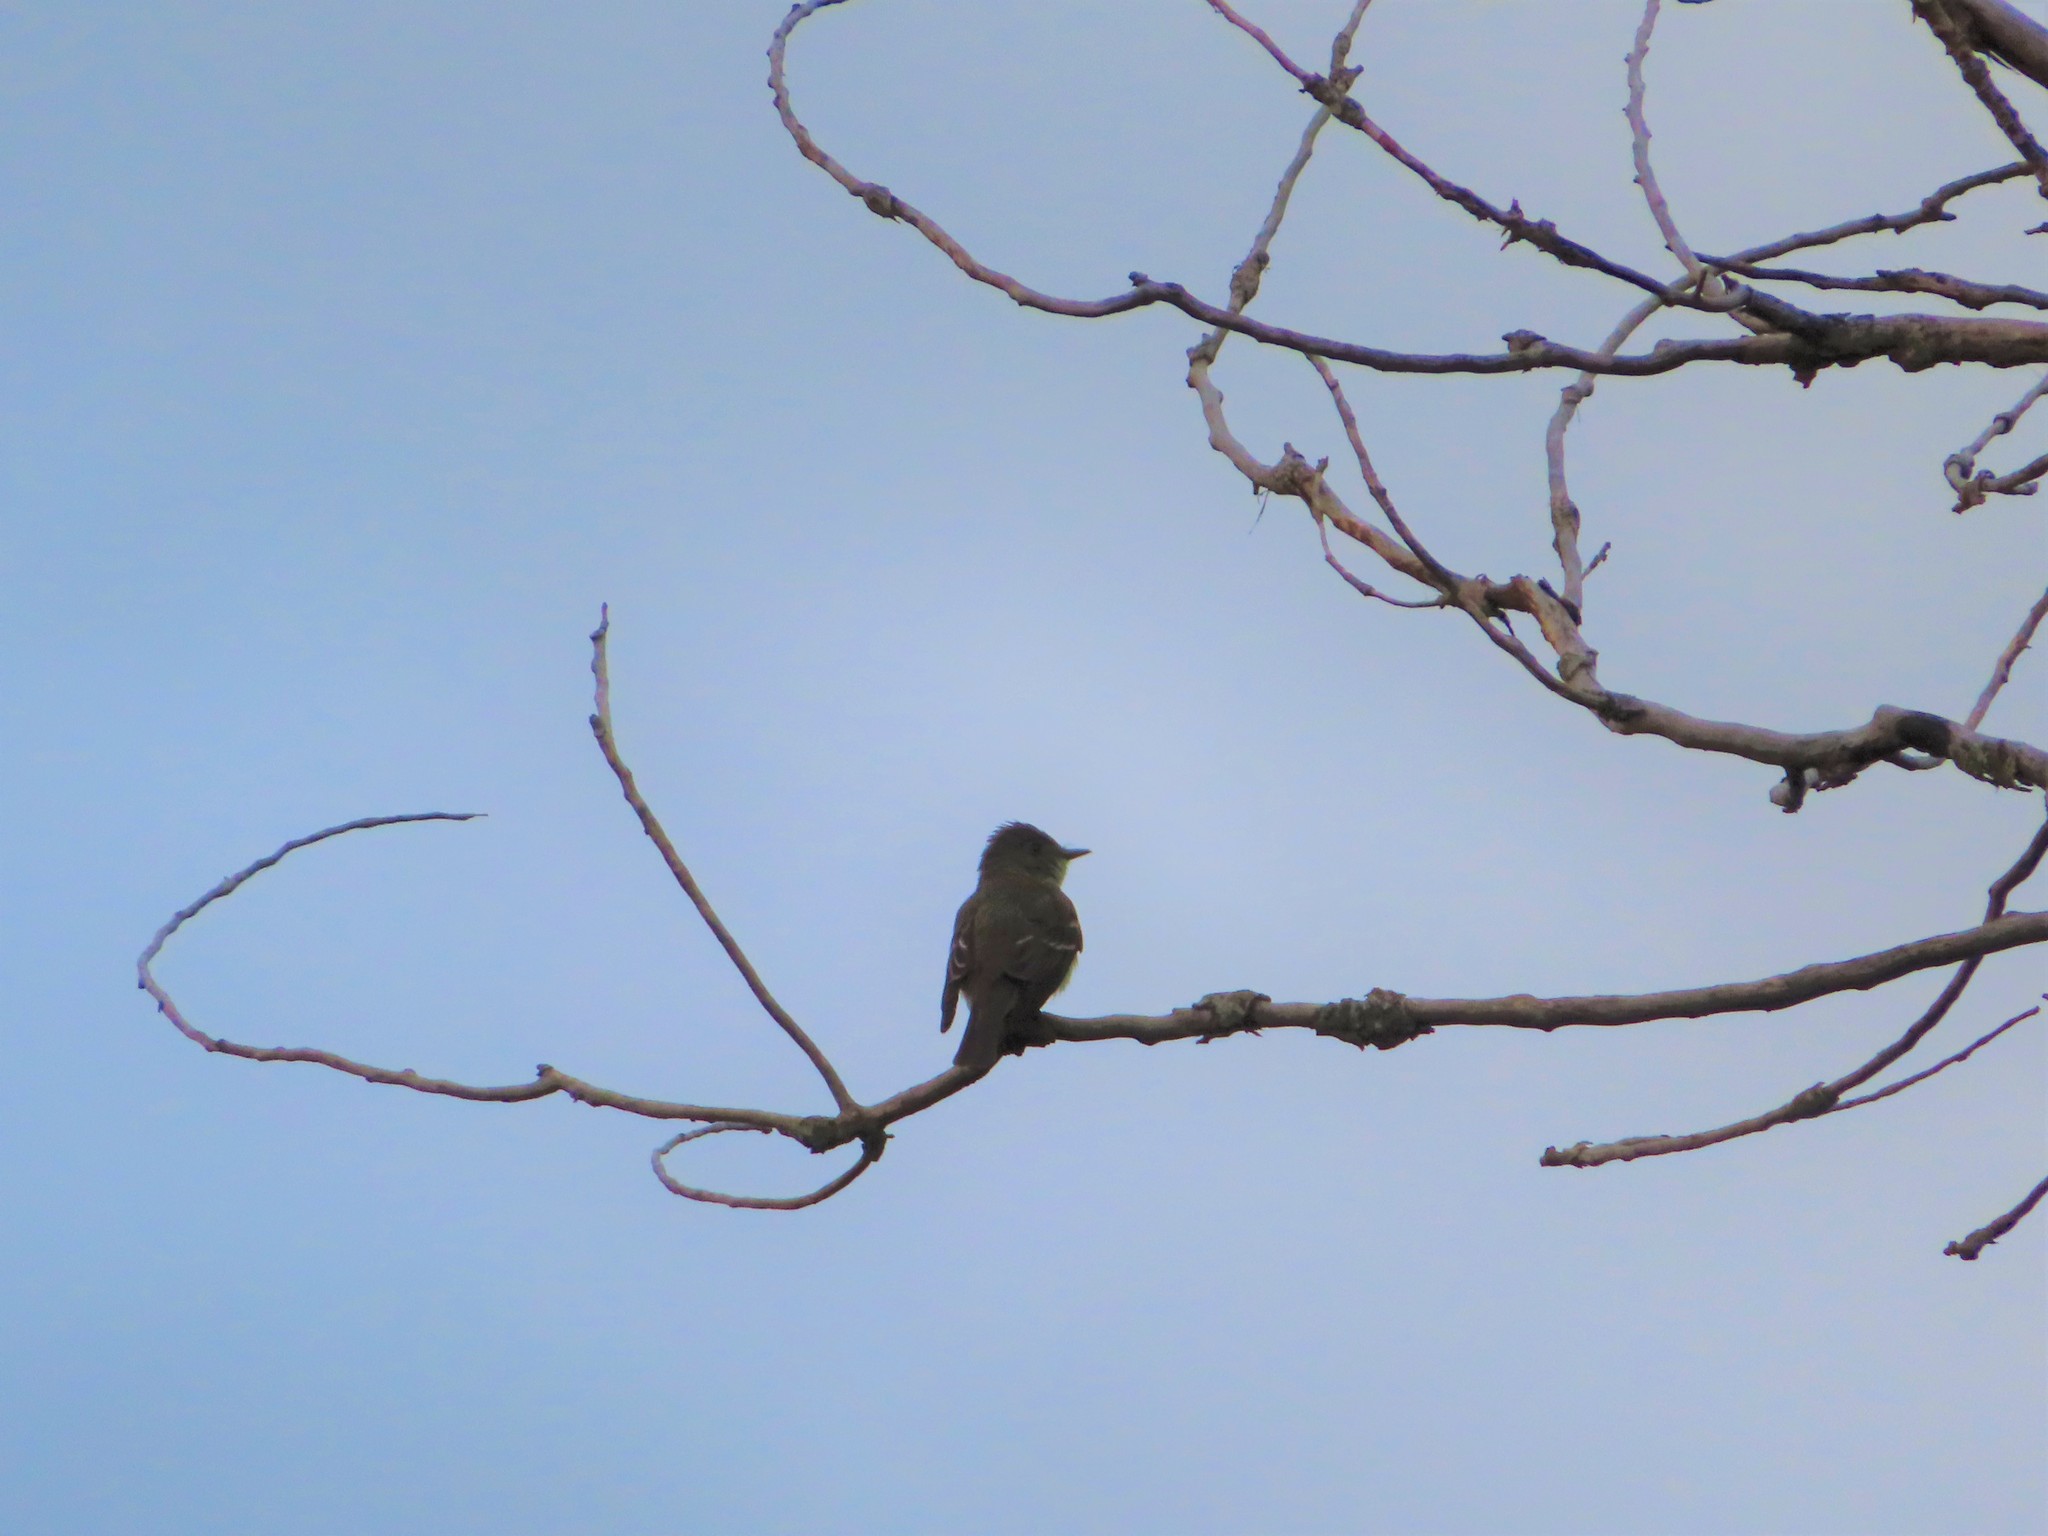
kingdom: Animalia
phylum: Chordata
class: Aves
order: Passeriformes
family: Tyrannidae
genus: Contopus
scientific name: Contopus virens
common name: Eastern wood-pewee
